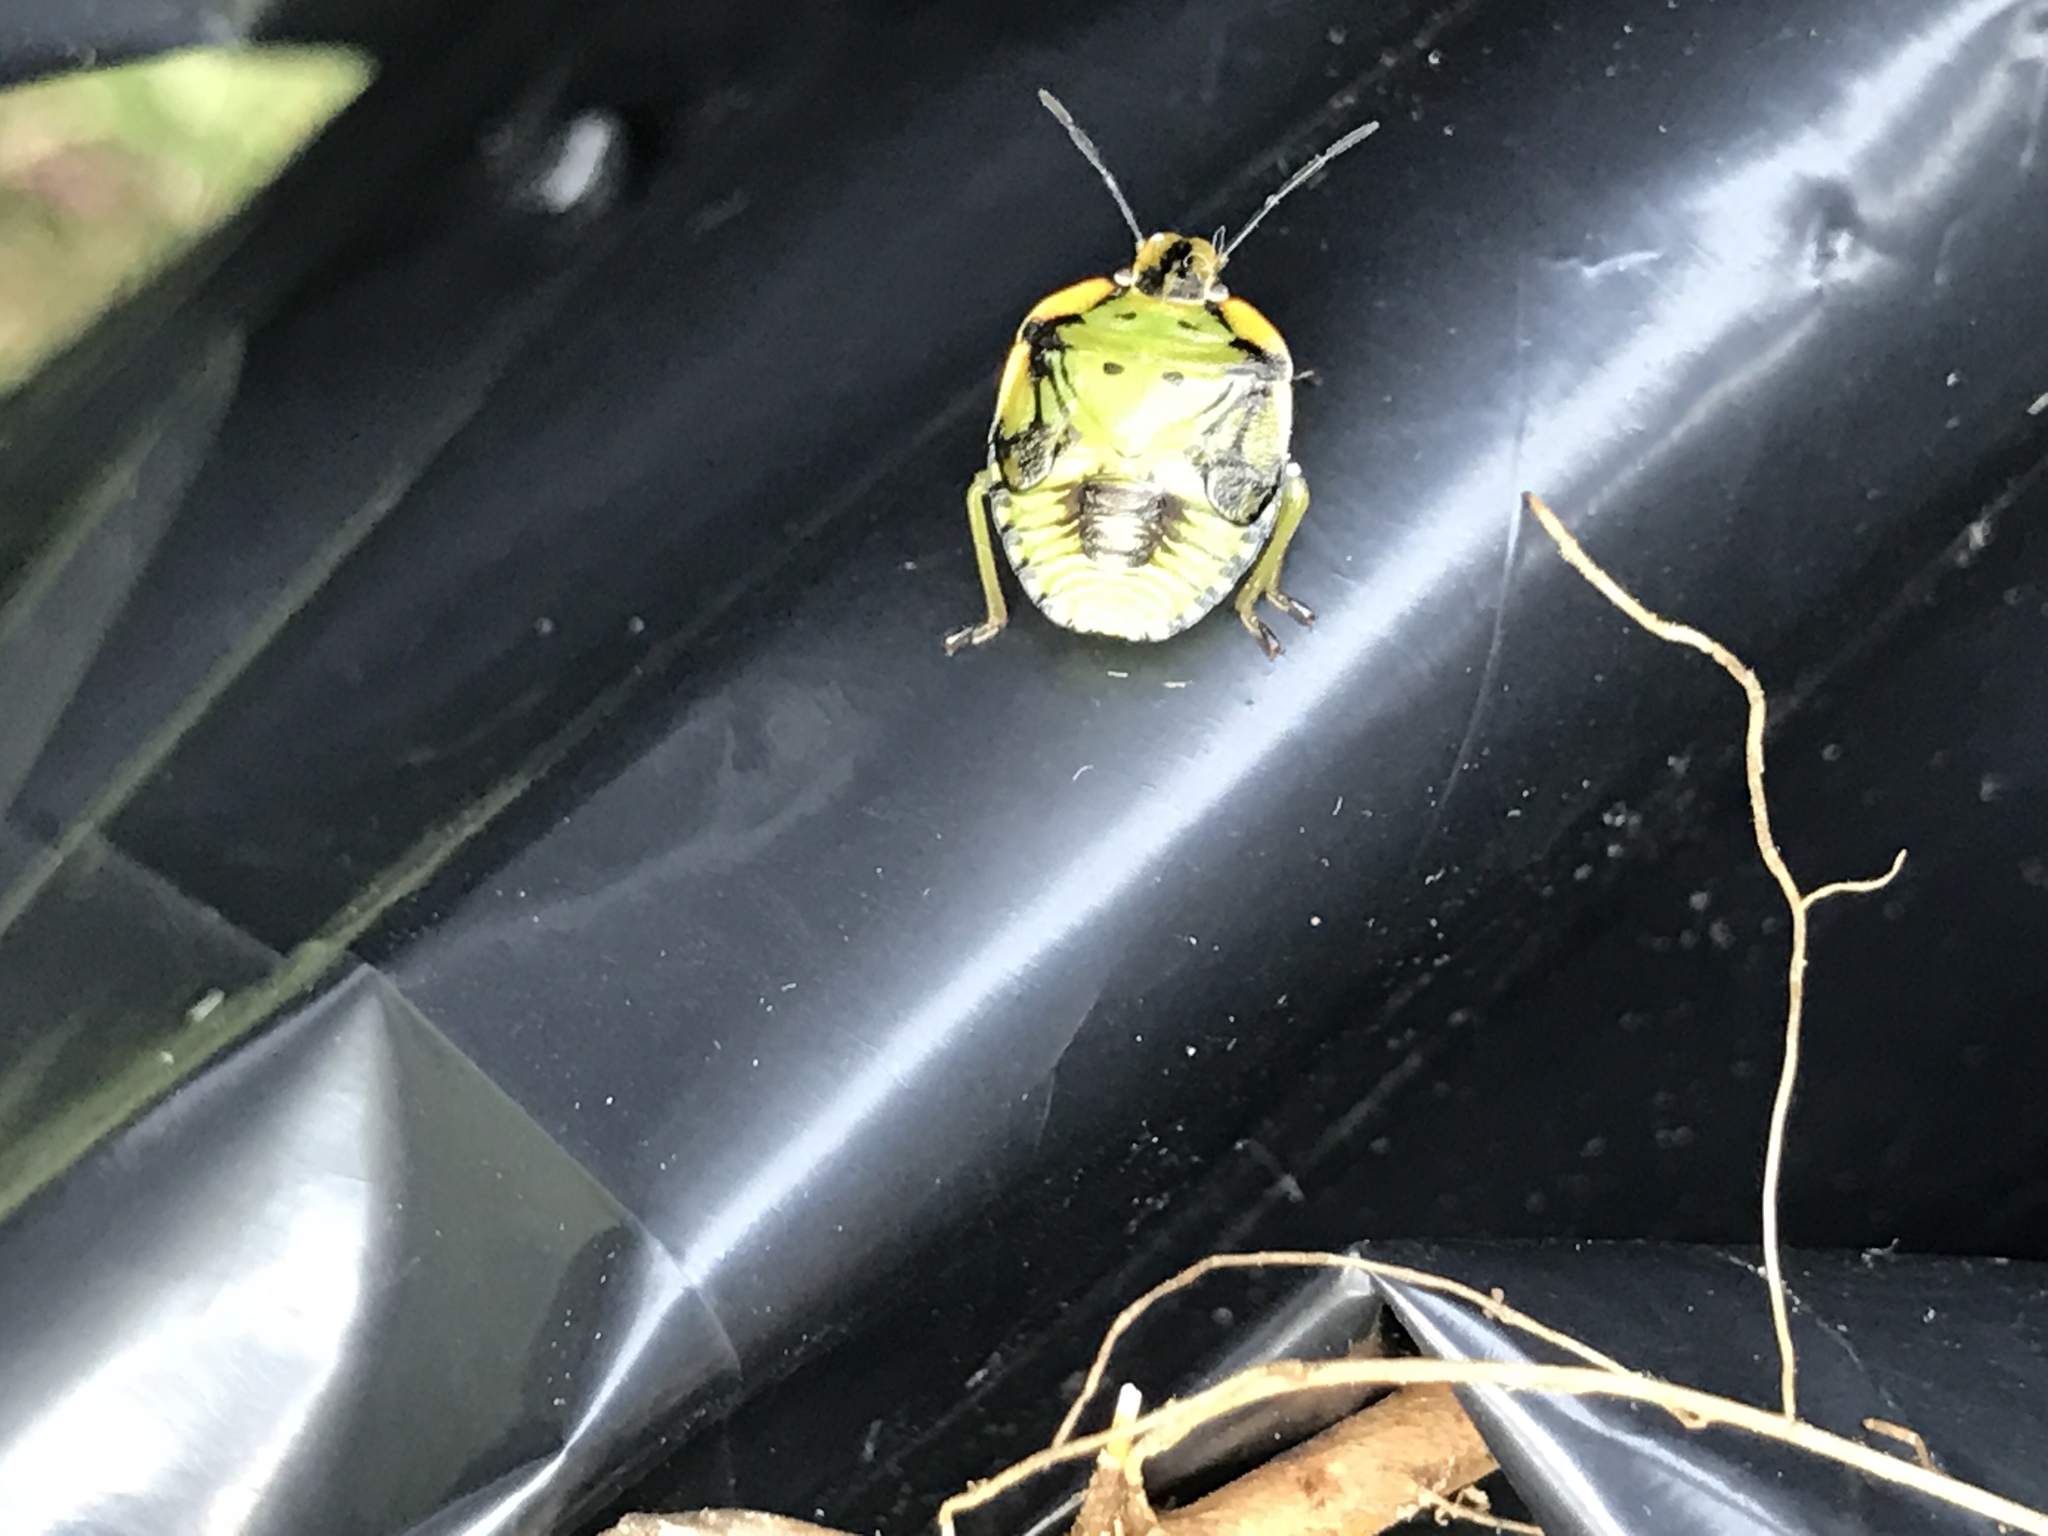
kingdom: Animalia
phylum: Arthropoda
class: Insecta
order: Hemiptera
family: Pentatomidae
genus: Chinavia
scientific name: Chinavia hilaris
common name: Green stink bug
